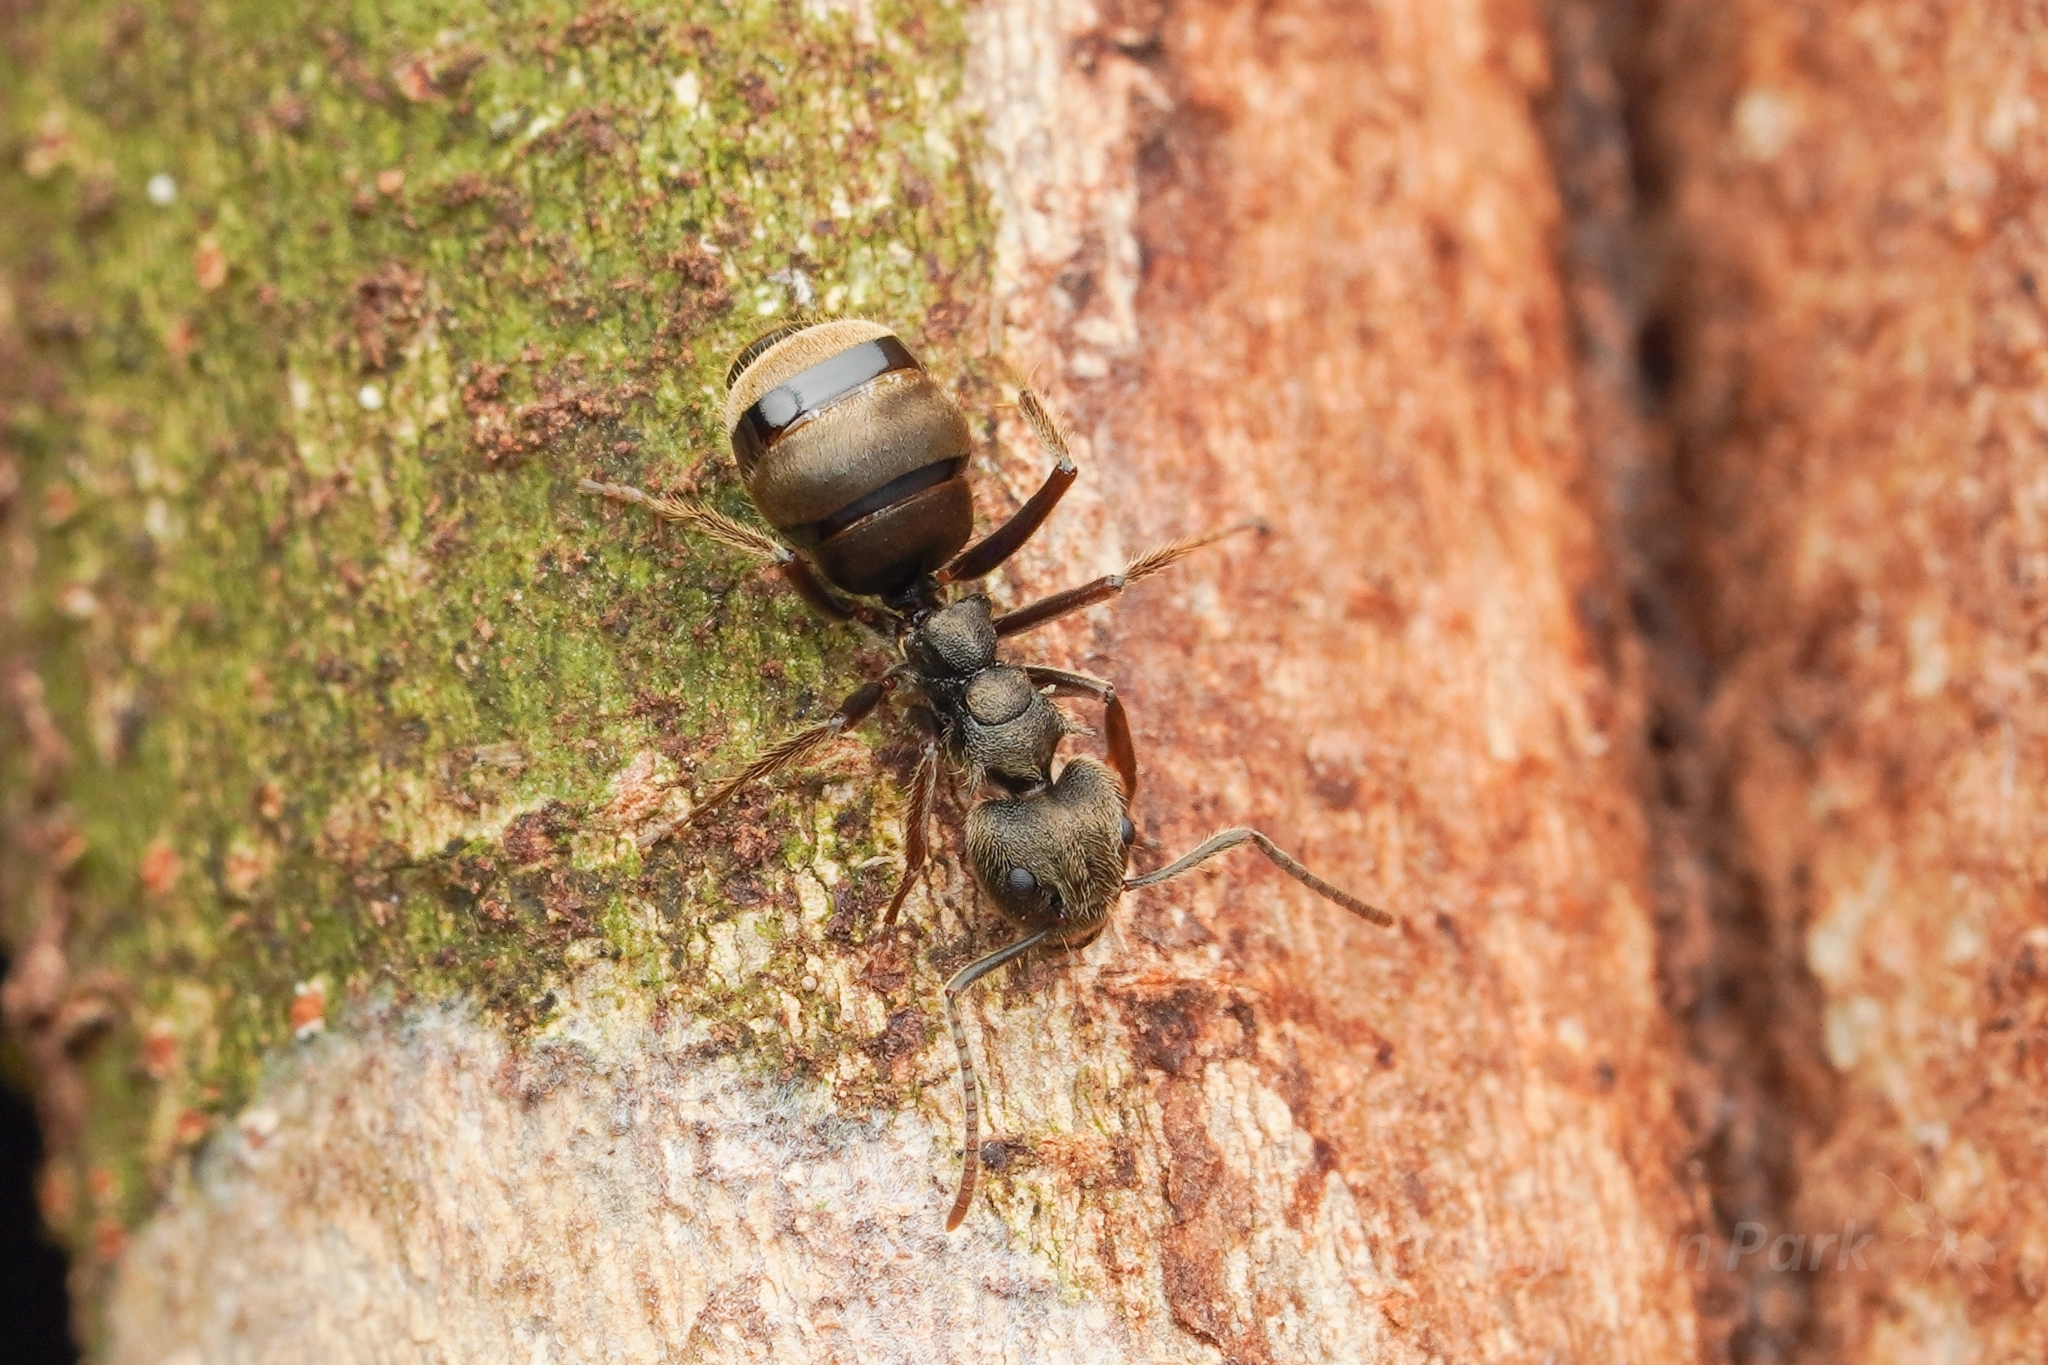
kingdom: Animalia
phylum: Arthropoda
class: Insecta
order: Hymenoptera
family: Formicidae
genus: Dolichoderus
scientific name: Dolichoderus bispinosus
